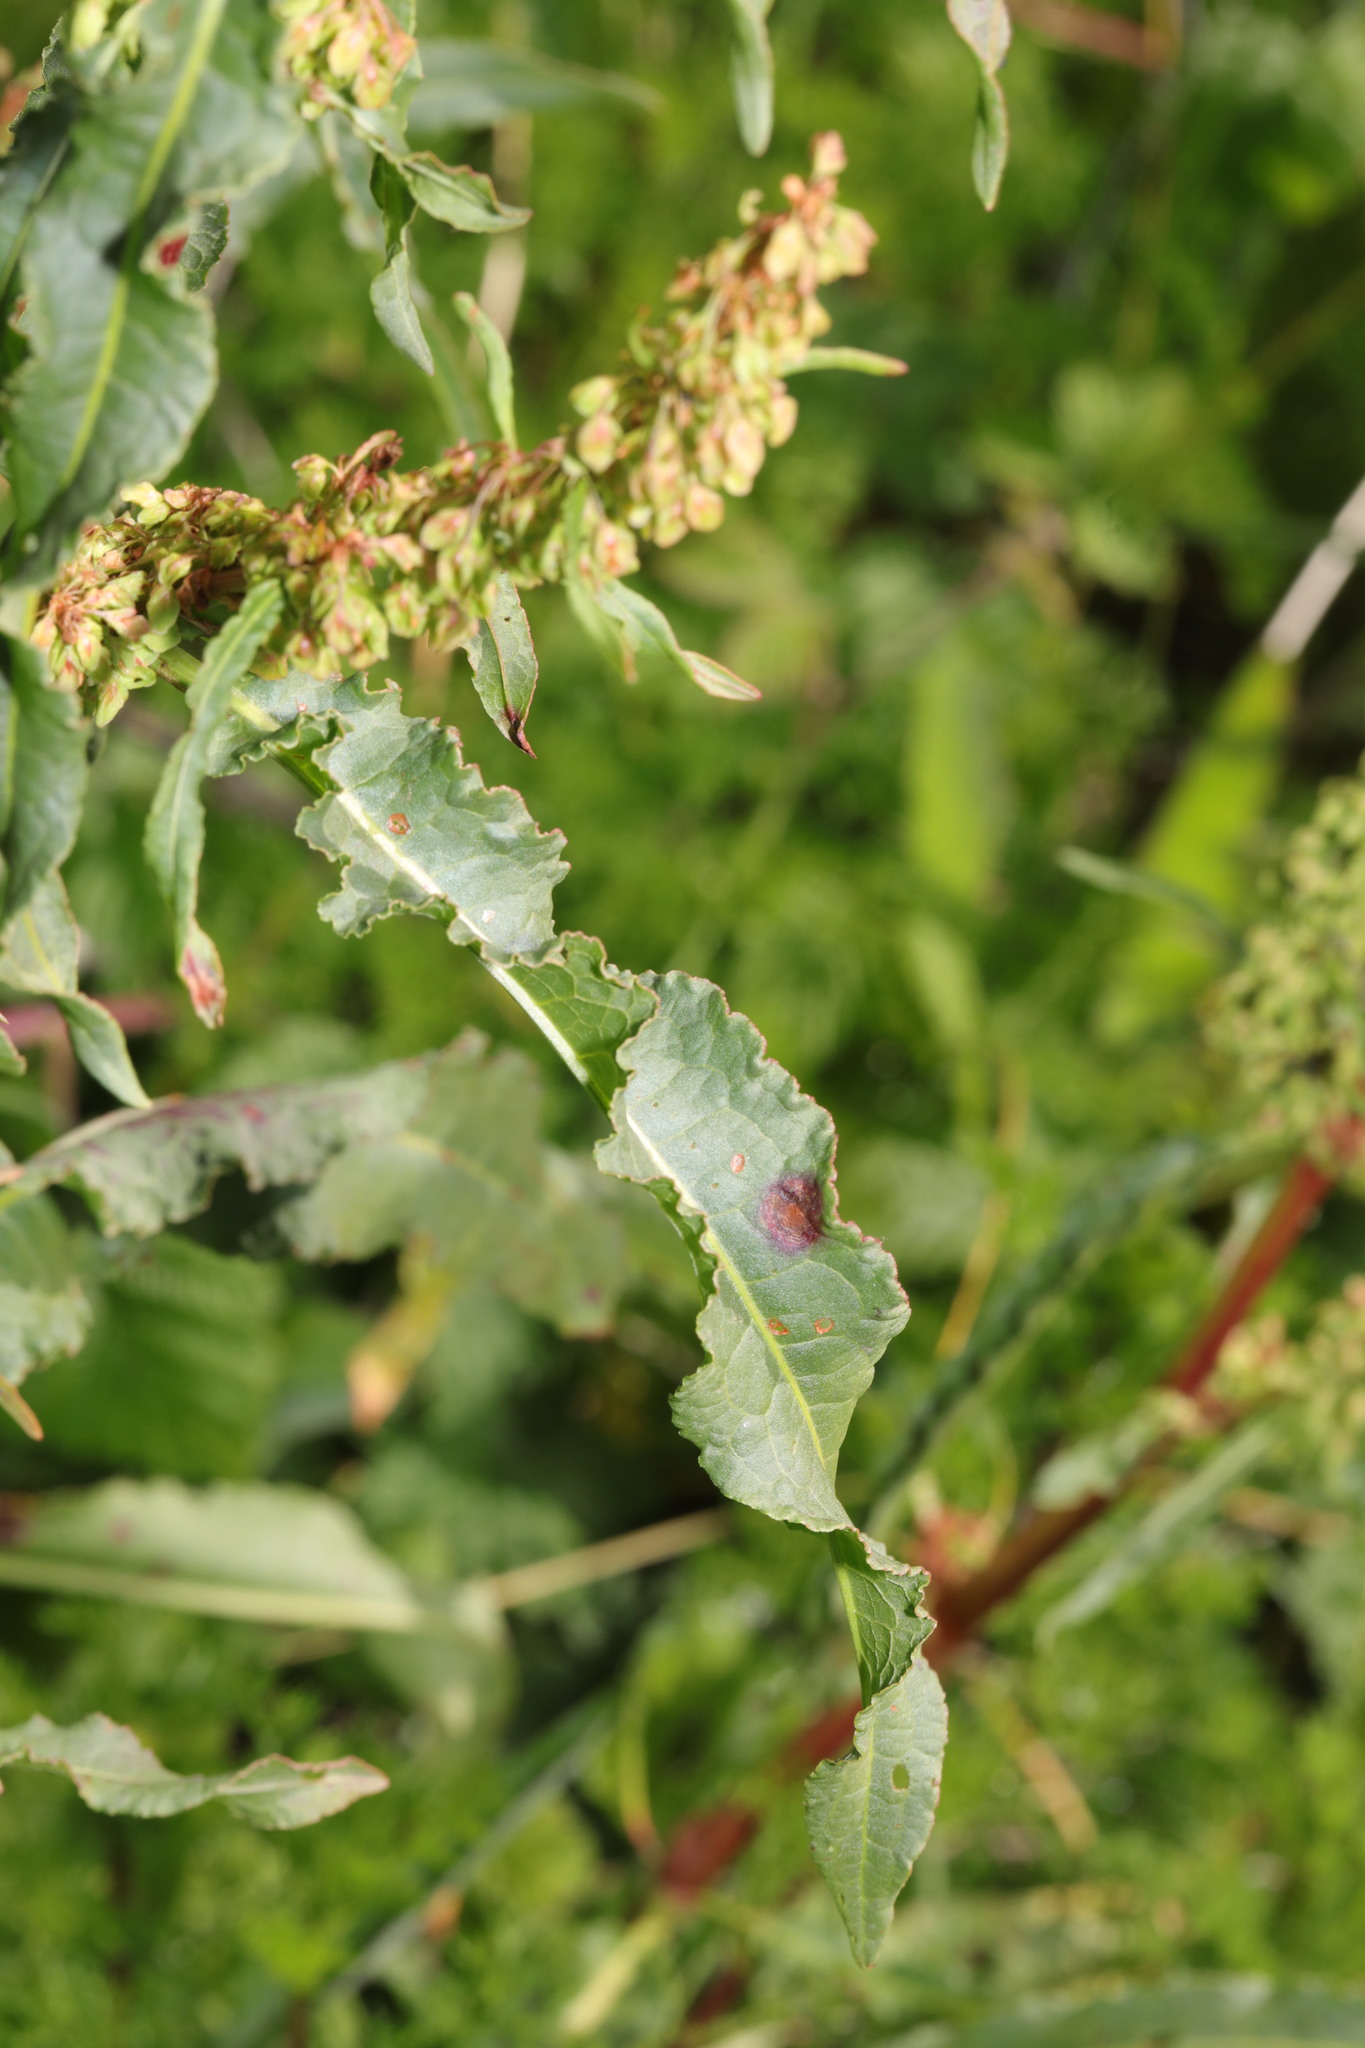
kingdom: Plantae
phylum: Tracheophyta
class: Magnoliopsida
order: Caryophyllales
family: Polygonaceae
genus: Rumex
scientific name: Rumex crispus
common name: Curled dock
